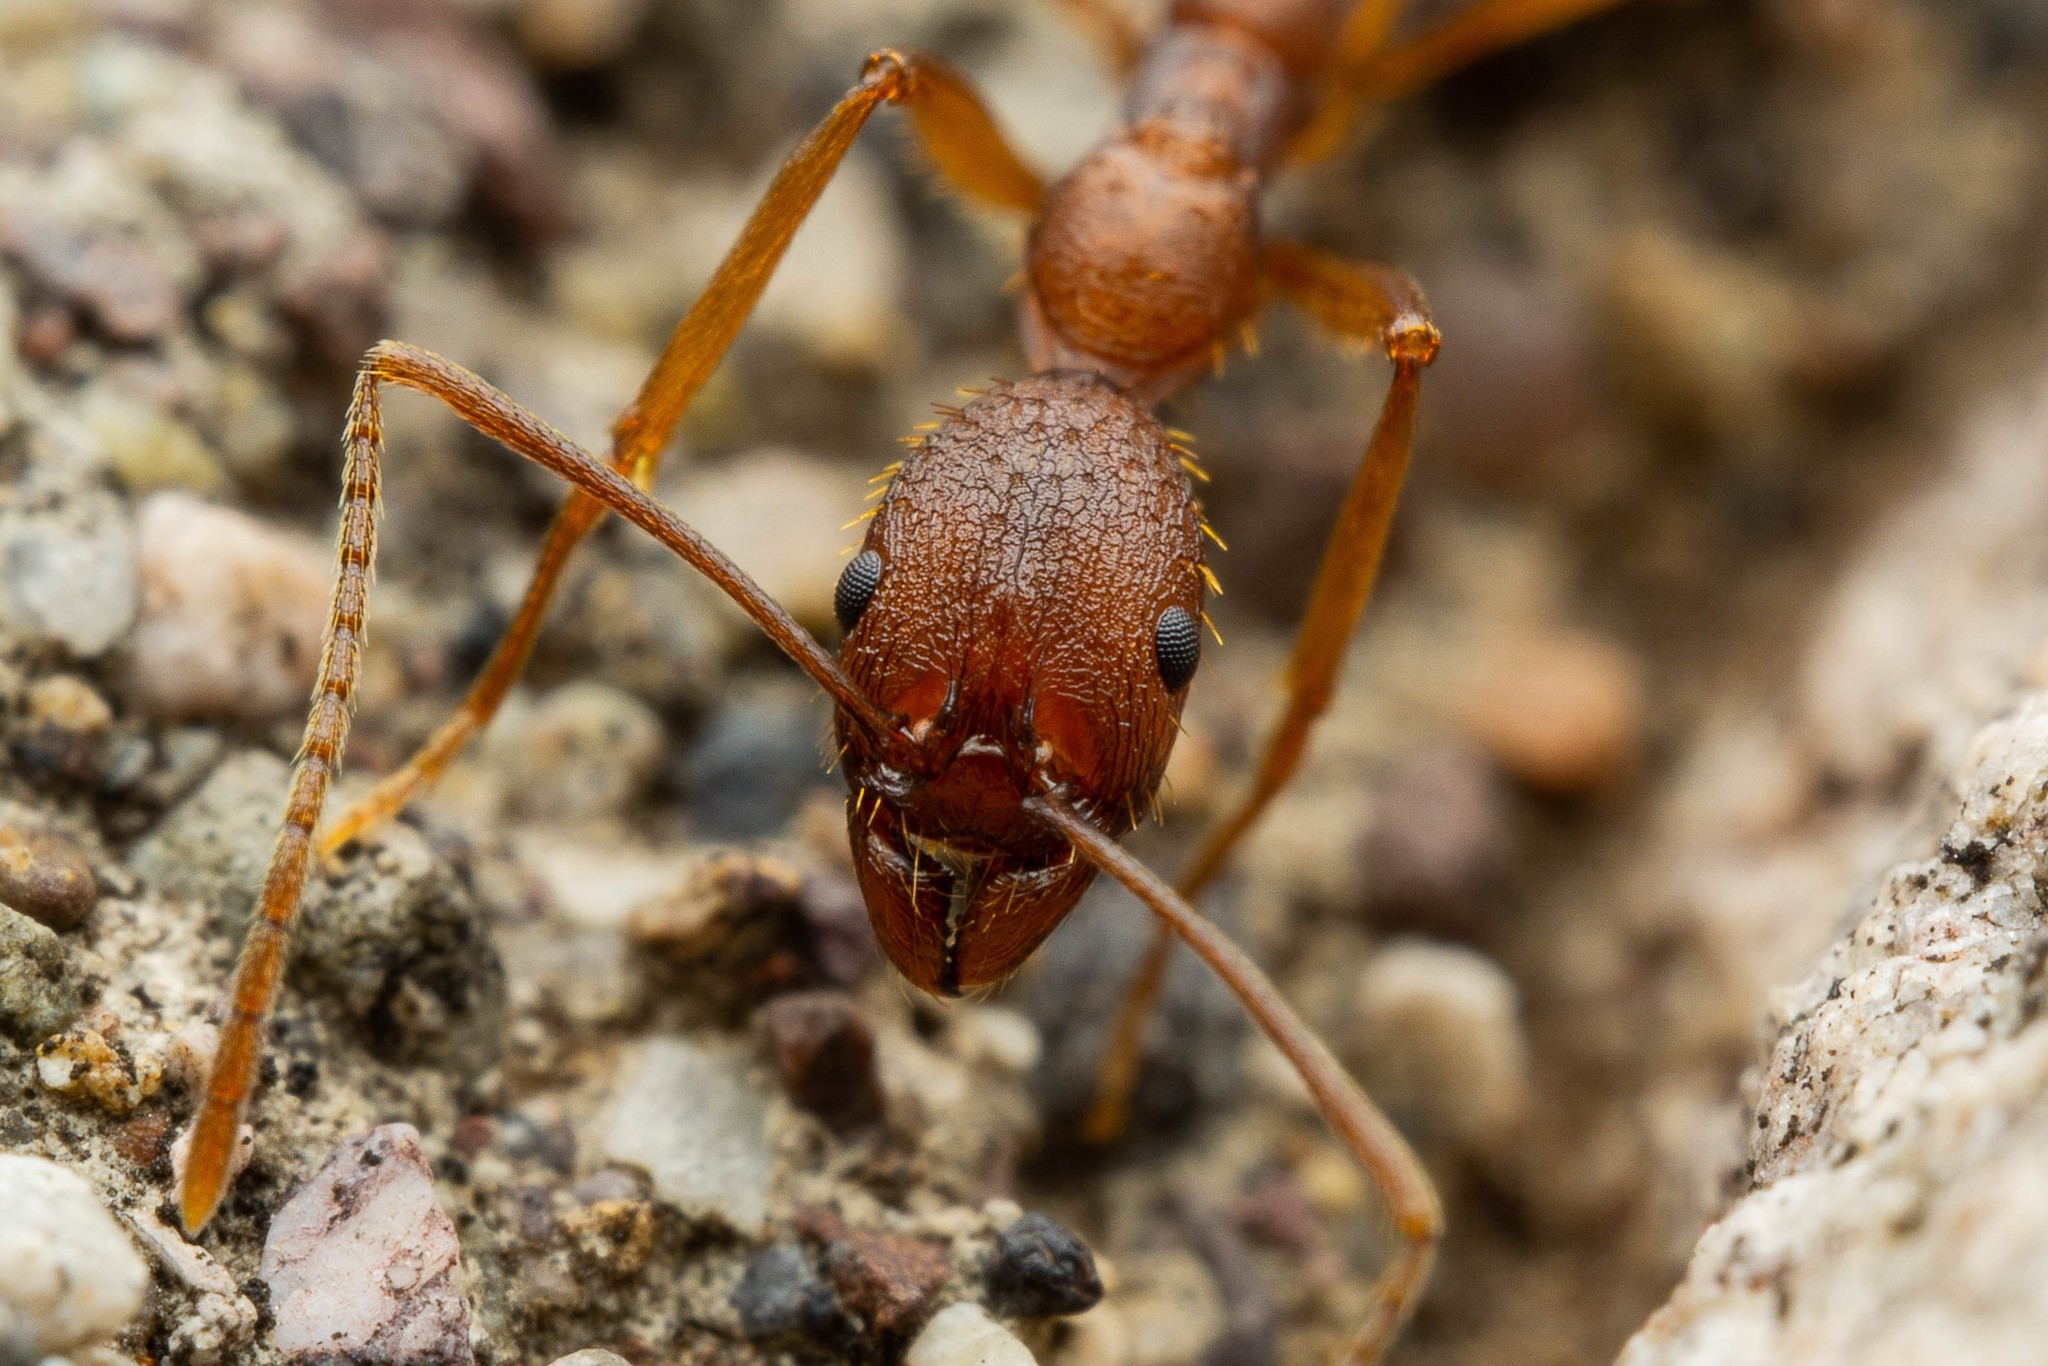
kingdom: Animalia
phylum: Arthropoda
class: Insecta
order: Hymenoptera
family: Formicidae
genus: Aphaenogaster
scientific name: Aphaenogaster huachucana
